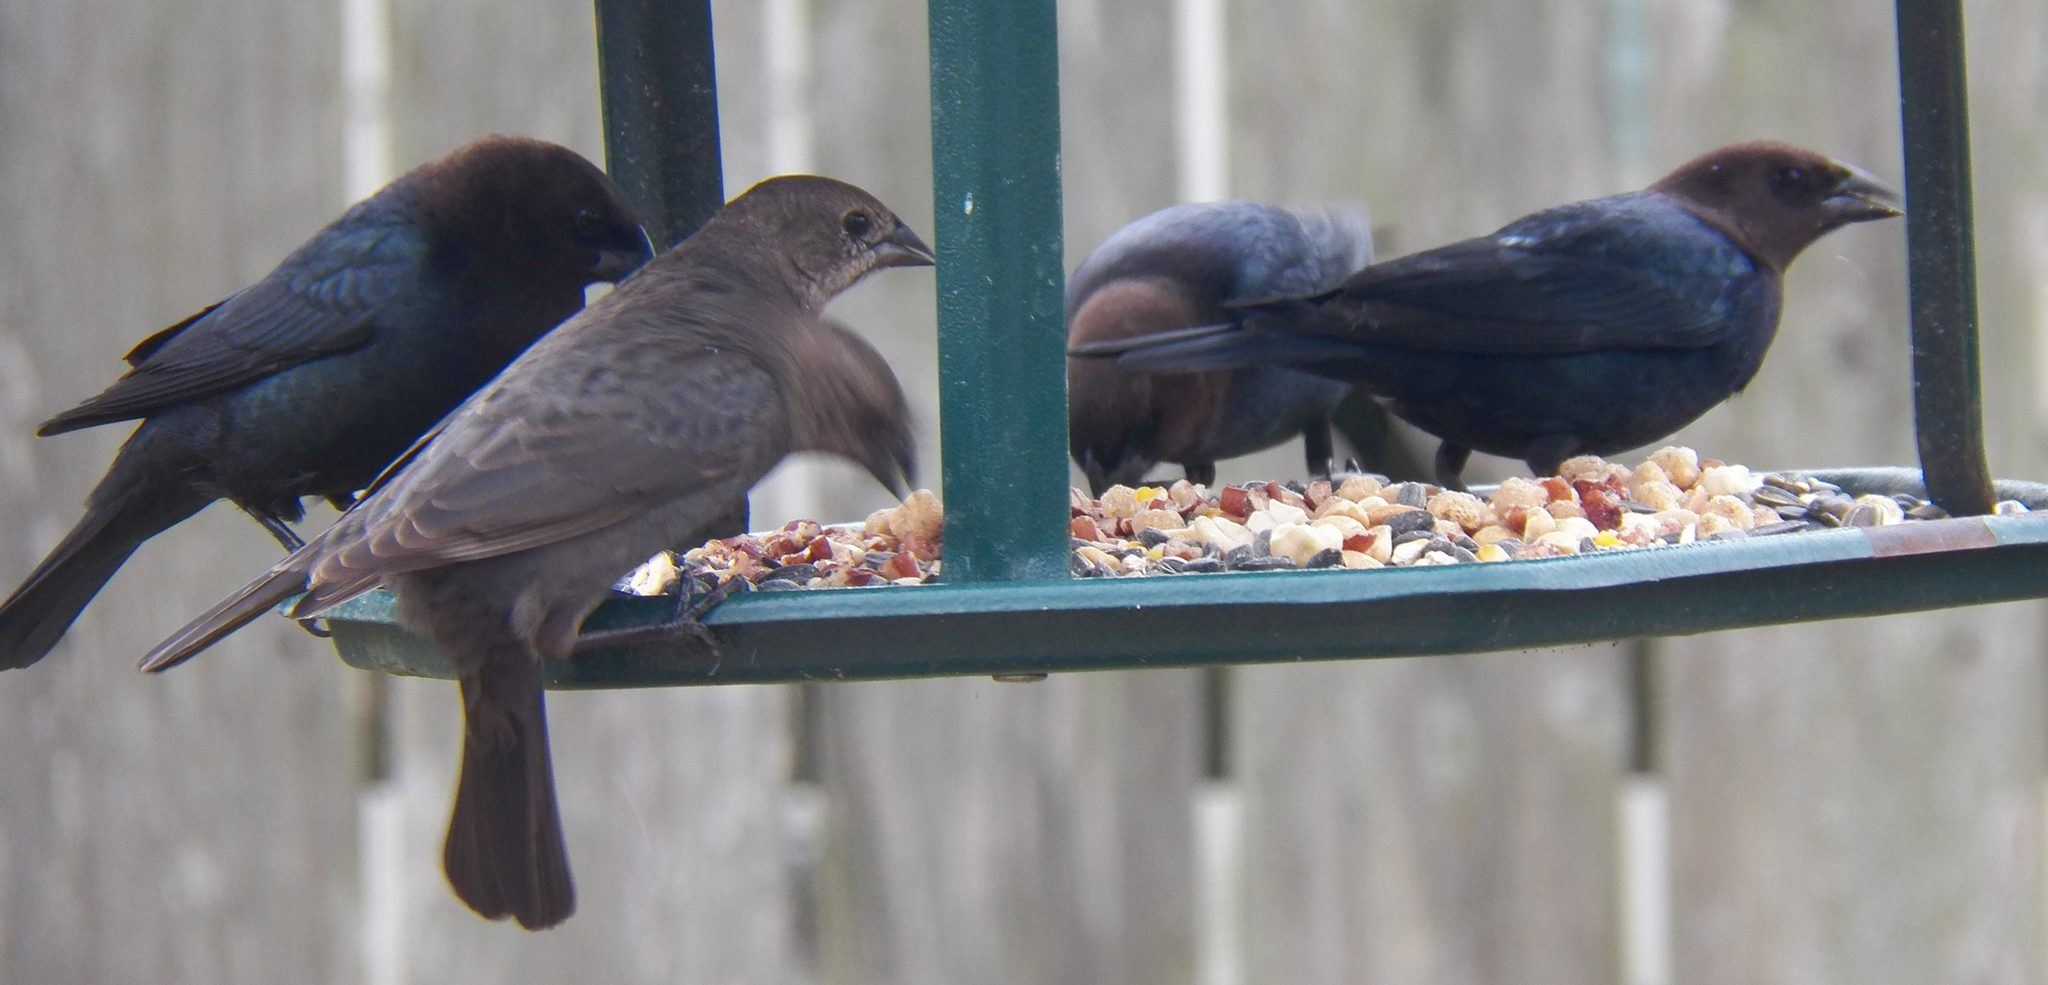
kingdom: Animalia
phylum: Chordata
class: Aves
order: Passeriformes
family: Icteridae
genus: Molothrus
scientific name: Molothrus ater
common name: Brown-headed cowbird
